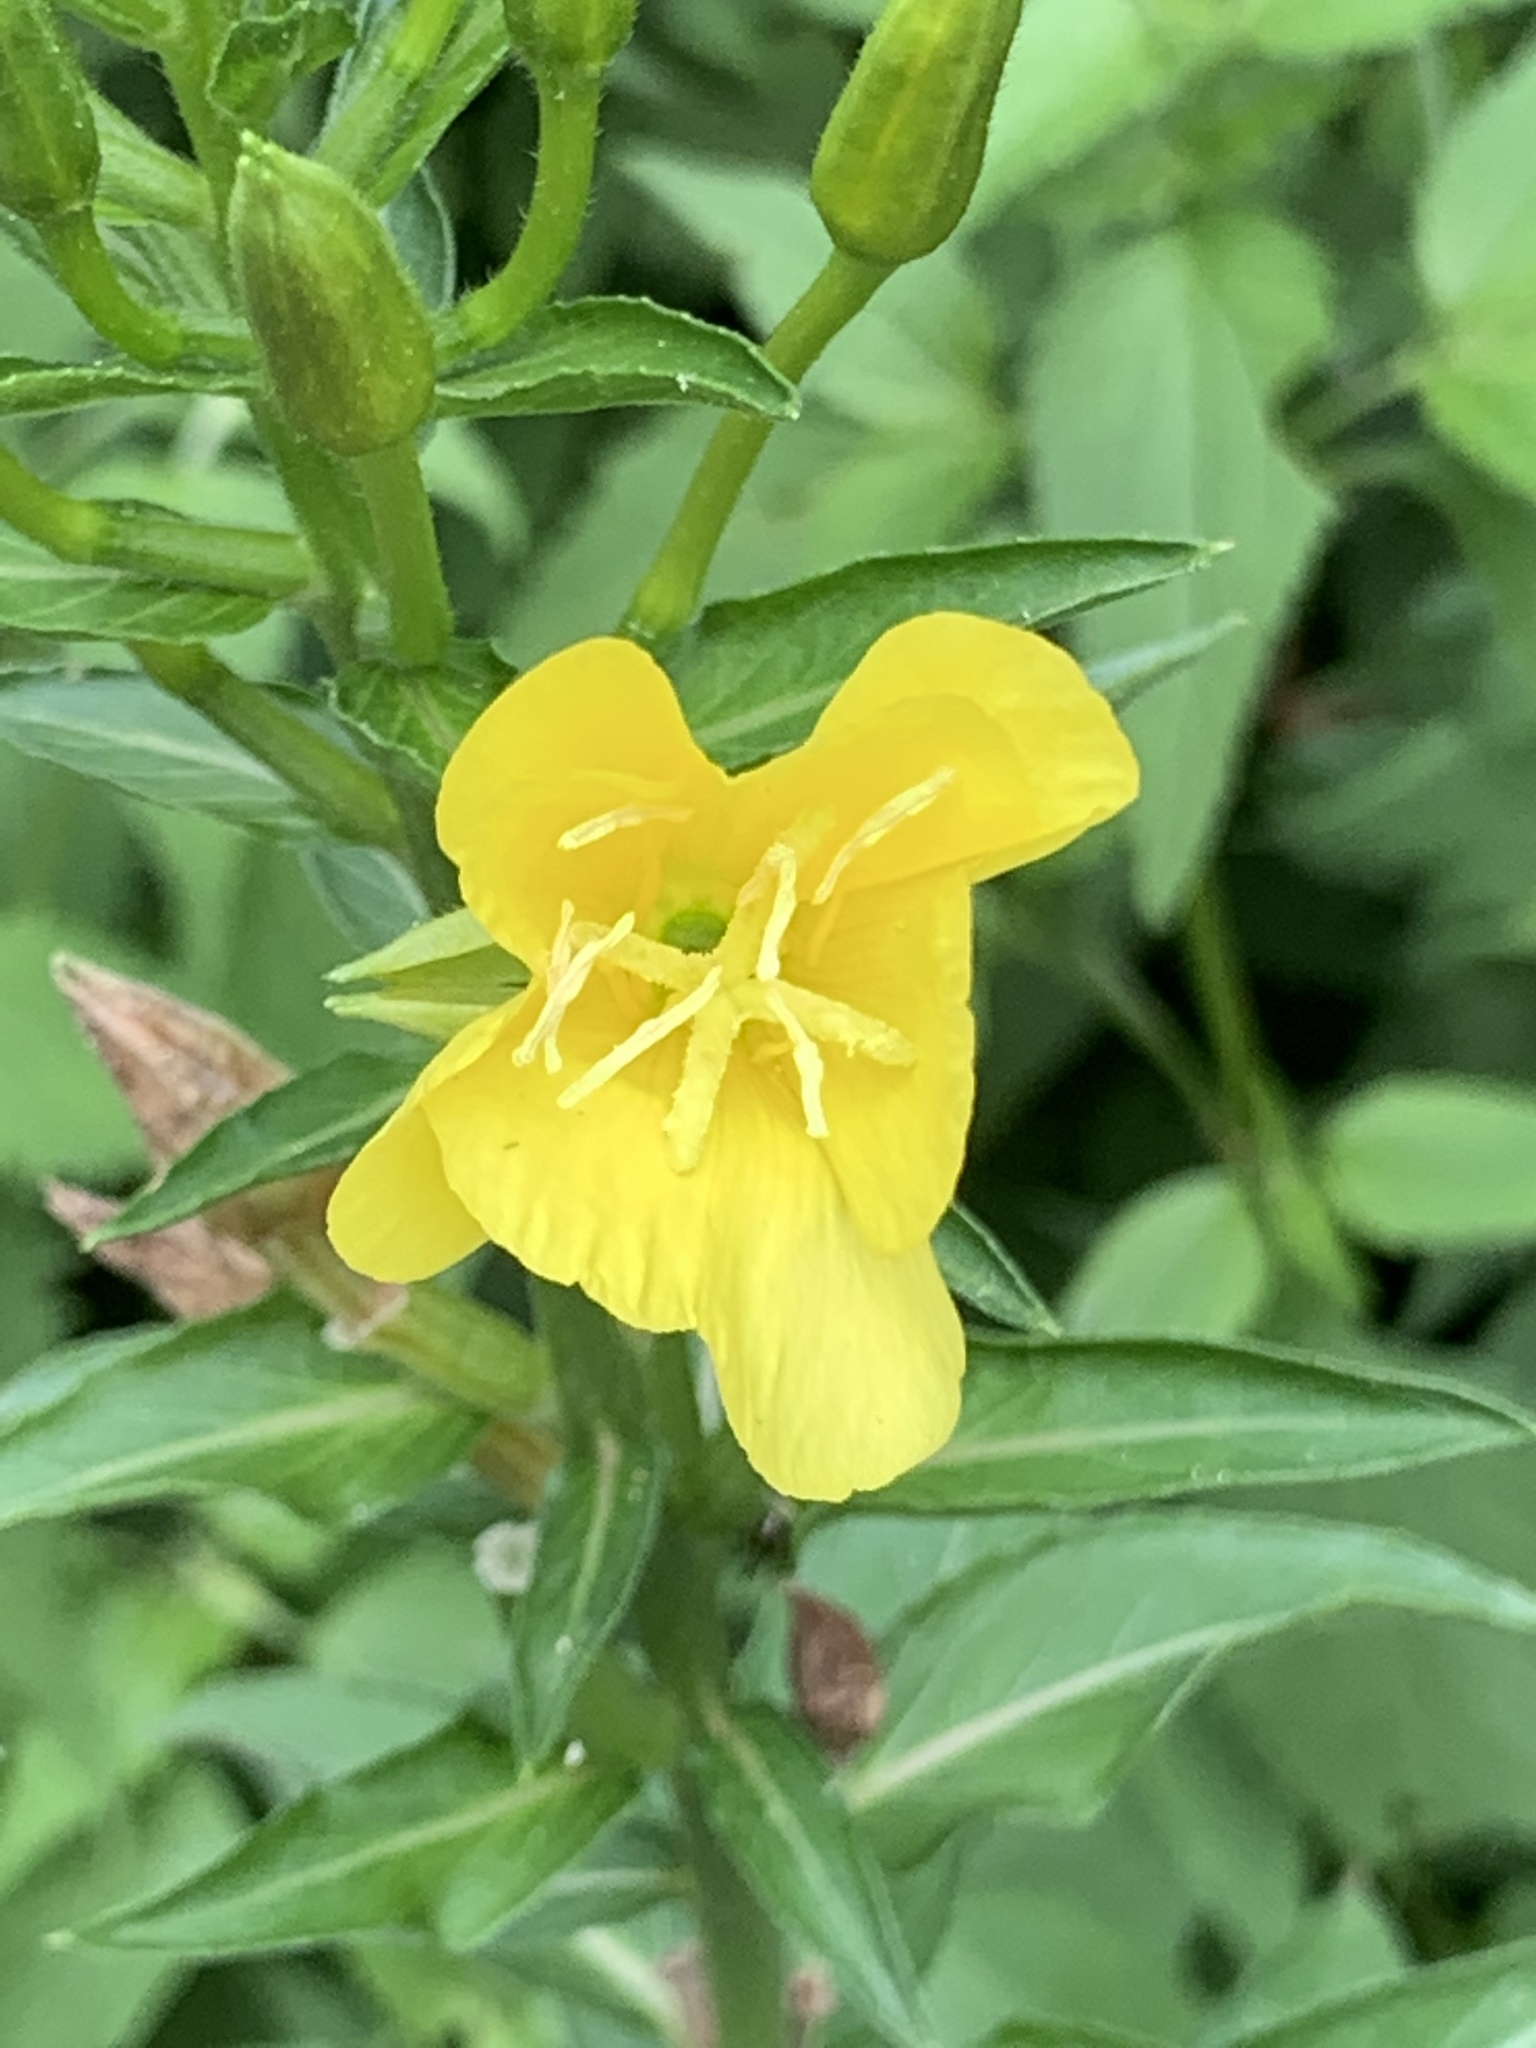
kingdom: Plantae
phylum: Tracheophyta
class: Magnoliopsida
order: Myrtales
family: Onagraceae
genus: Oenothera
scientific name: Oenothera biennis
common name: Common evening-primrose
